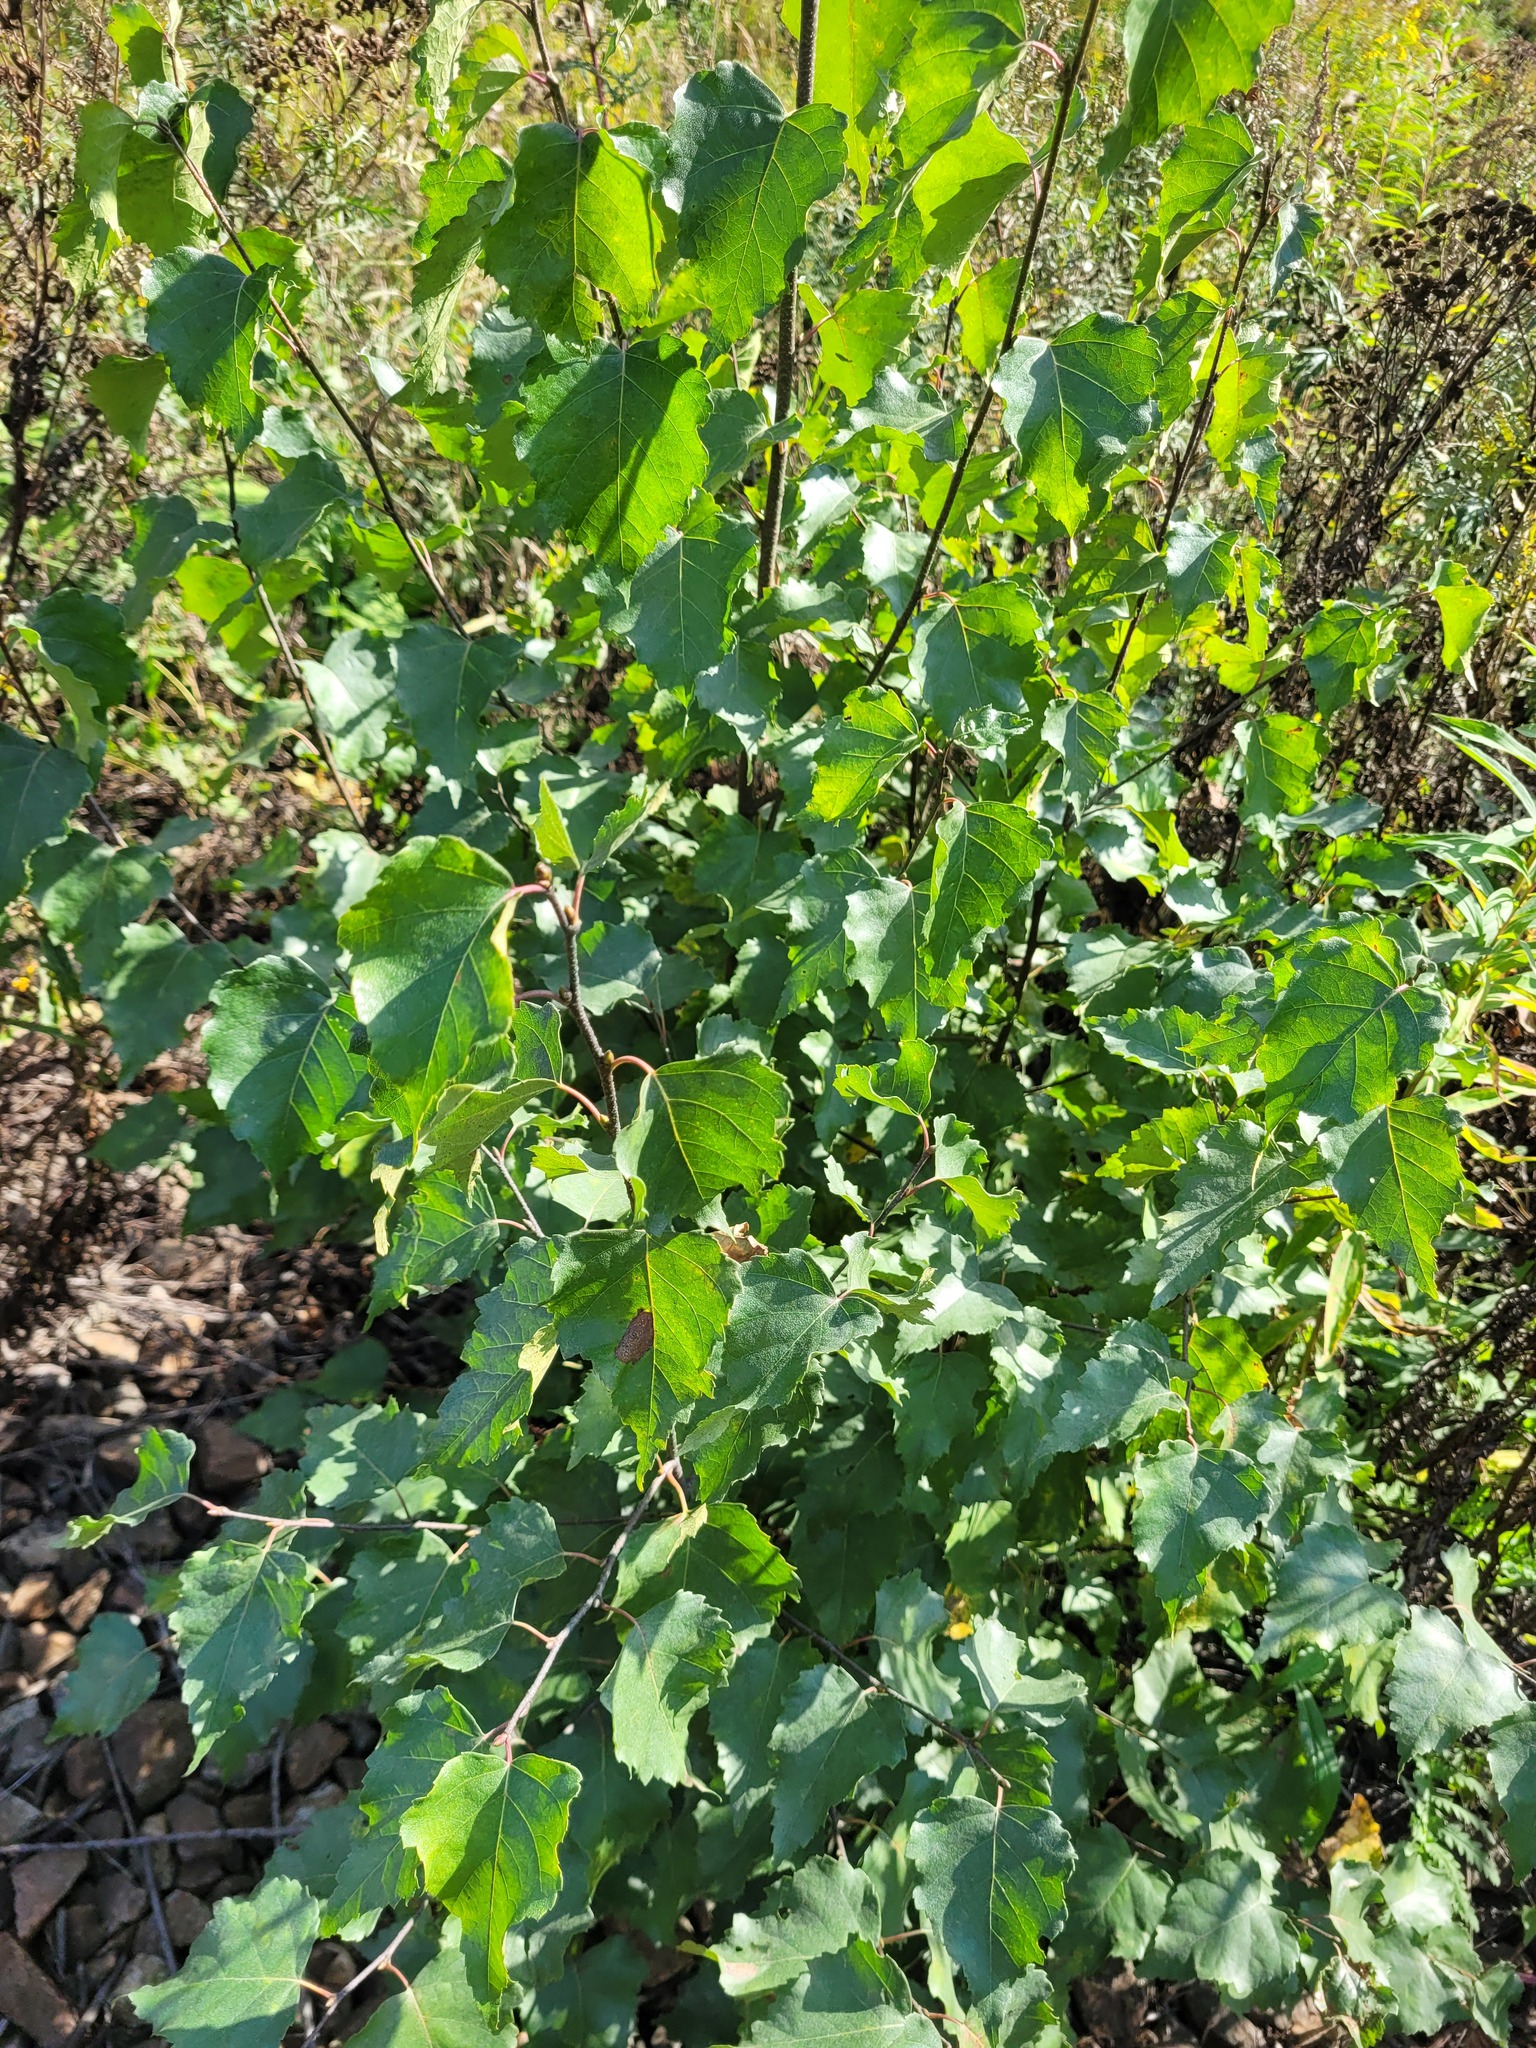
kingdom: Plantae
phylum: Tracheophyta
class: Magnoliopsida
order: Fagales
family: Betulaceae
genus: Betula
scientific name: Betula pendula
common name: Silver birch
